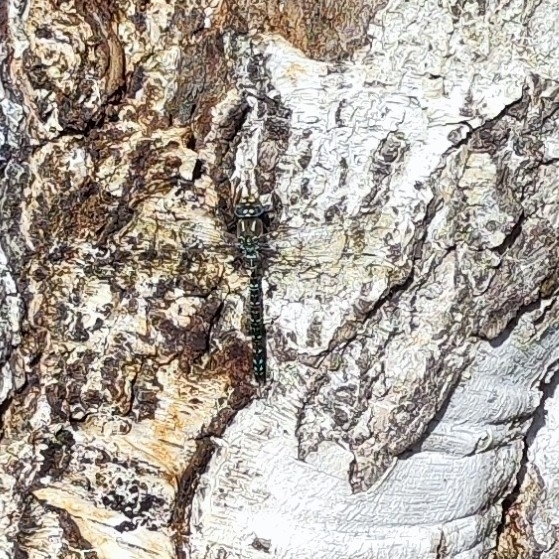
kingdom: Animalia
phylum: Arthropoda
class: Insecta
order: Odonata
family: Aeshnidae
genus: Aeshna
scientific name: Aeshna subarctica
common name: Subarctic darner
